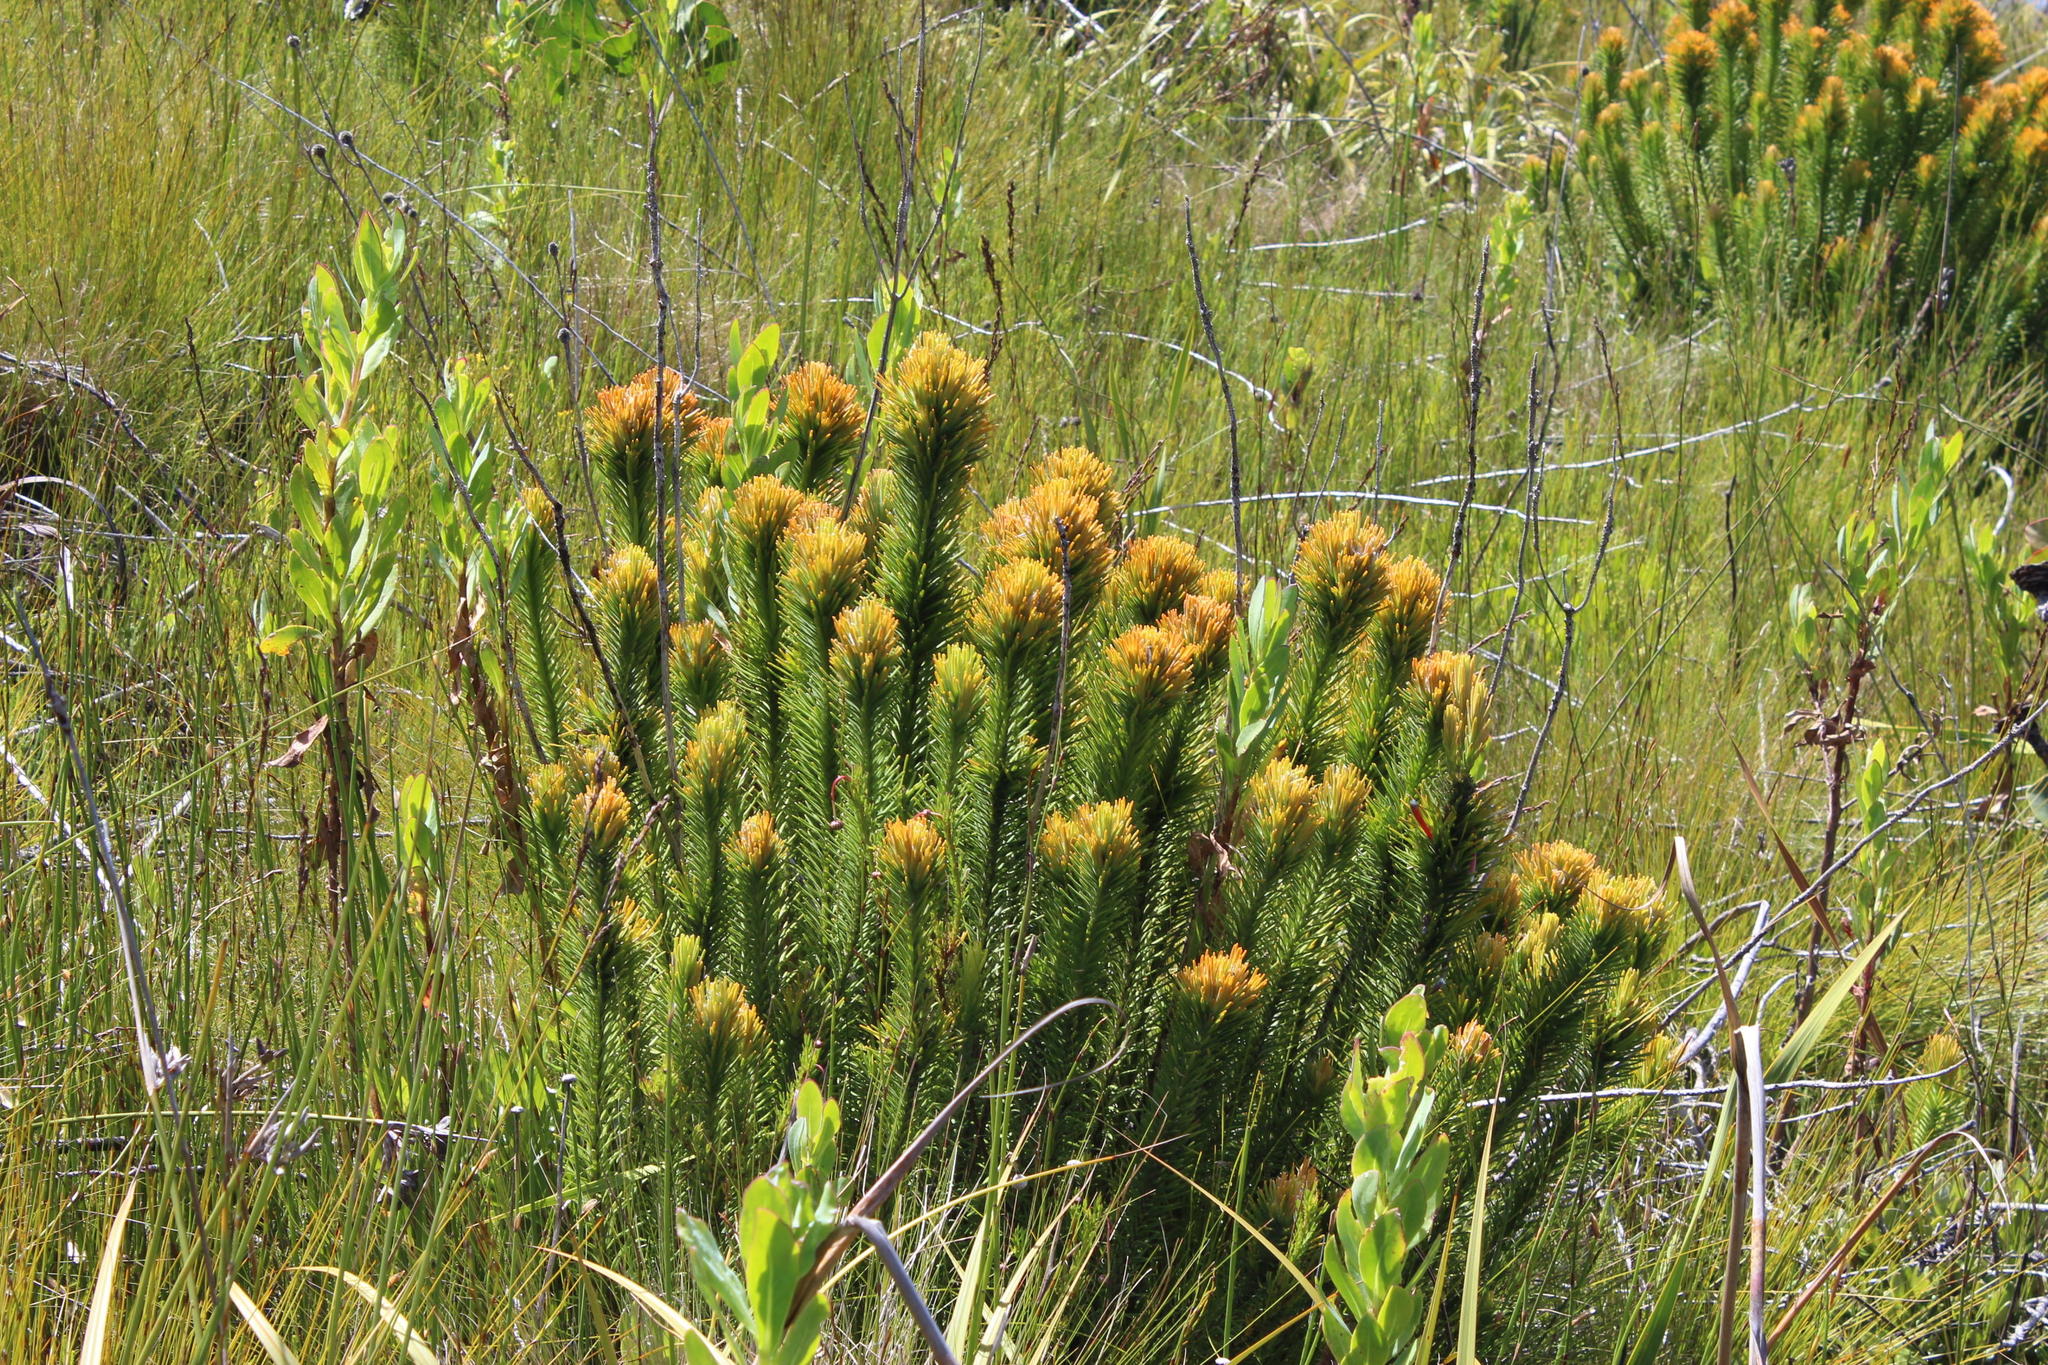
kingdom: Plantae
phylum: Tracheophyta
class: Magnoliopsida
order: Lamiales
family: Stilbaceae
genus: Retzia
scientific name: Retzia capensis
